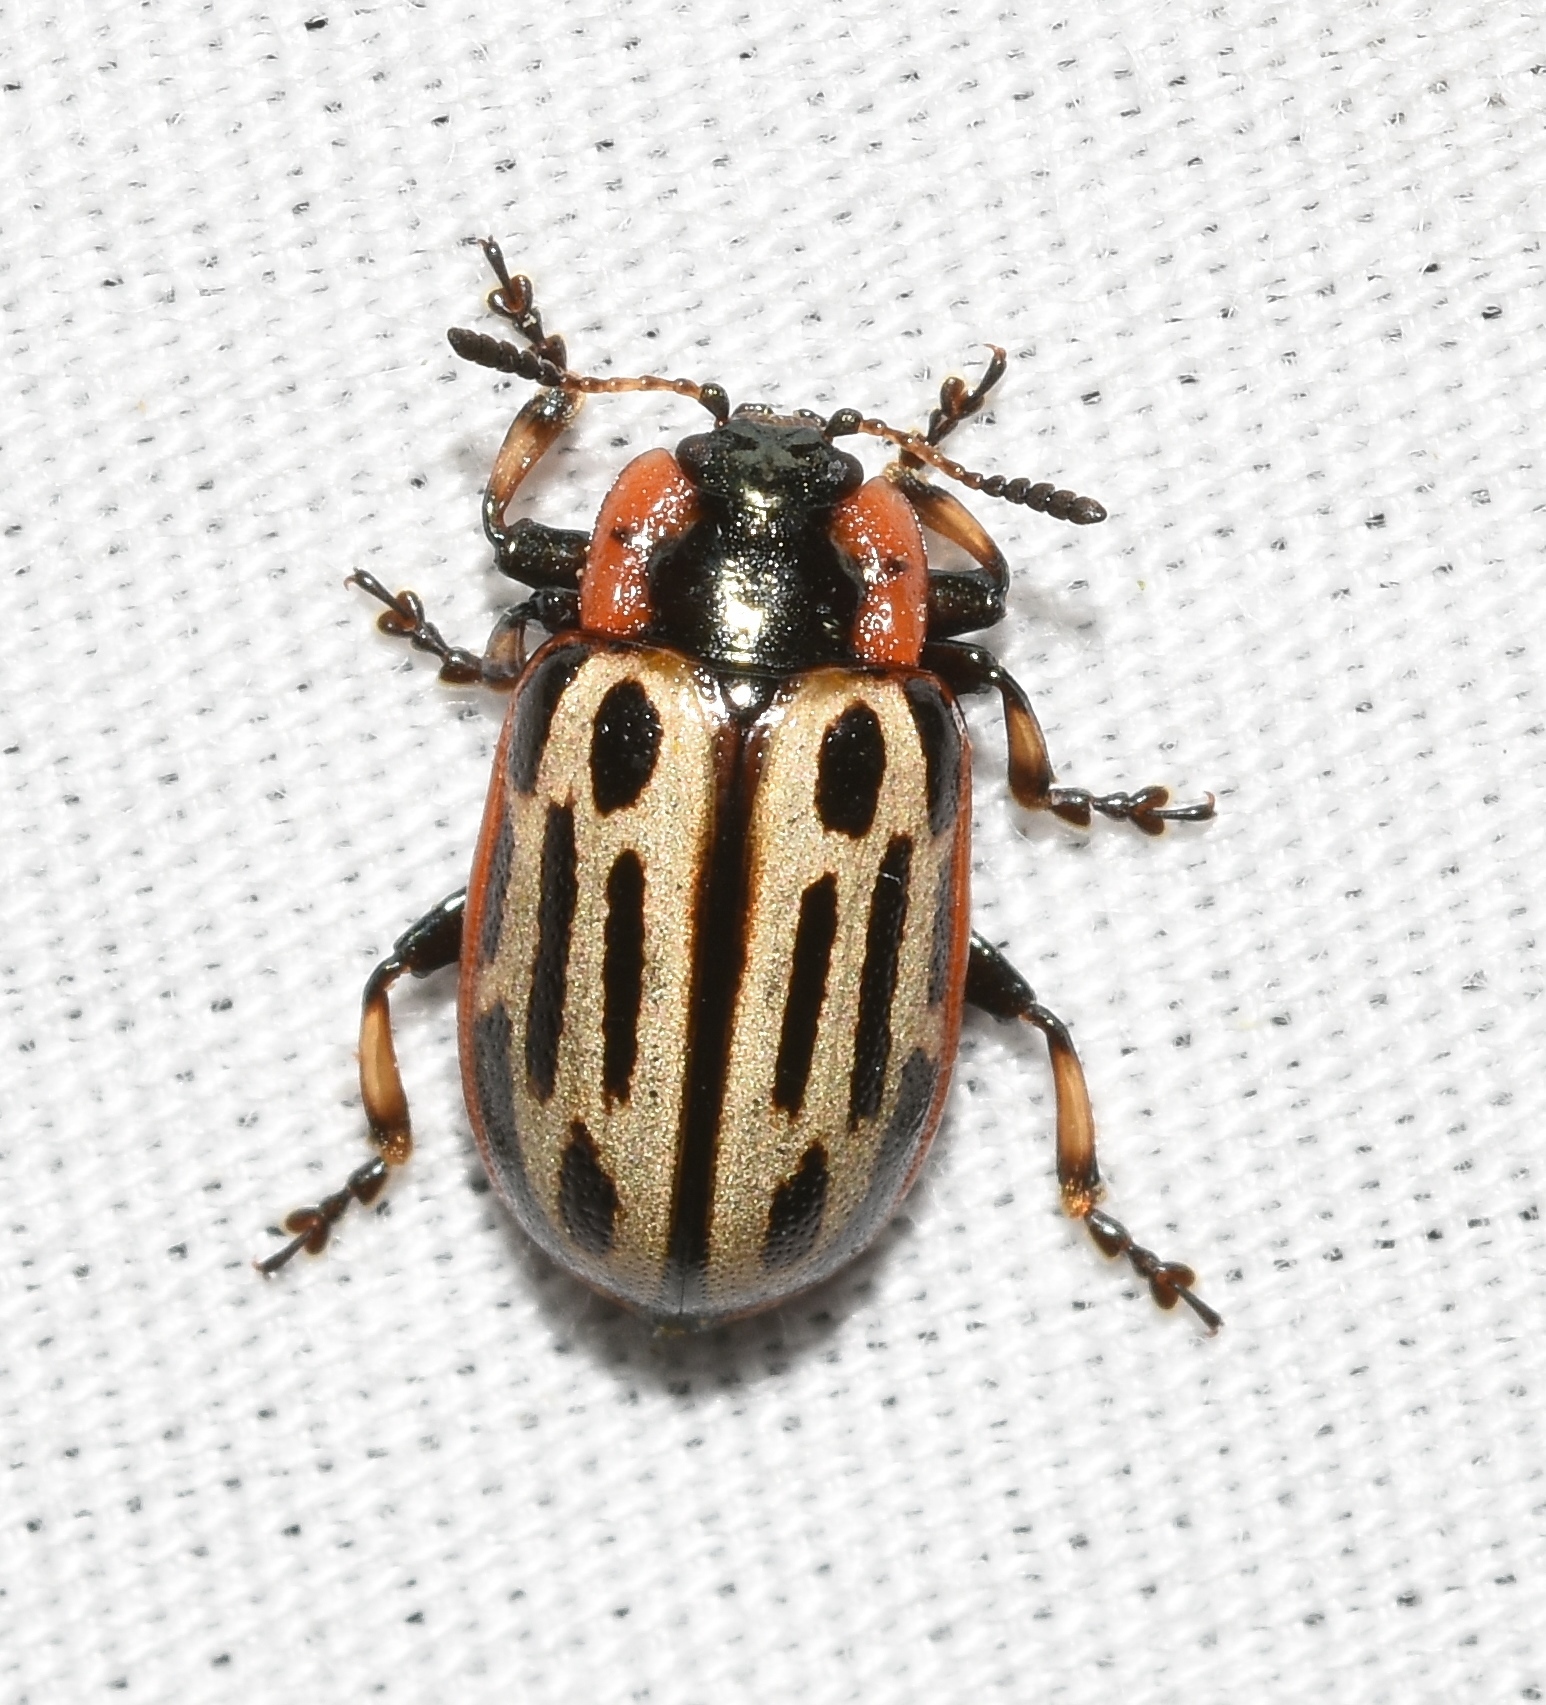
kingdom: Animalia
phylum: Arthropoda
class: Insecta
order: Coleoptera
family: Chrysomelidae
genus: Aethiopocassis
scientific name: Aethiopocassis scripta
